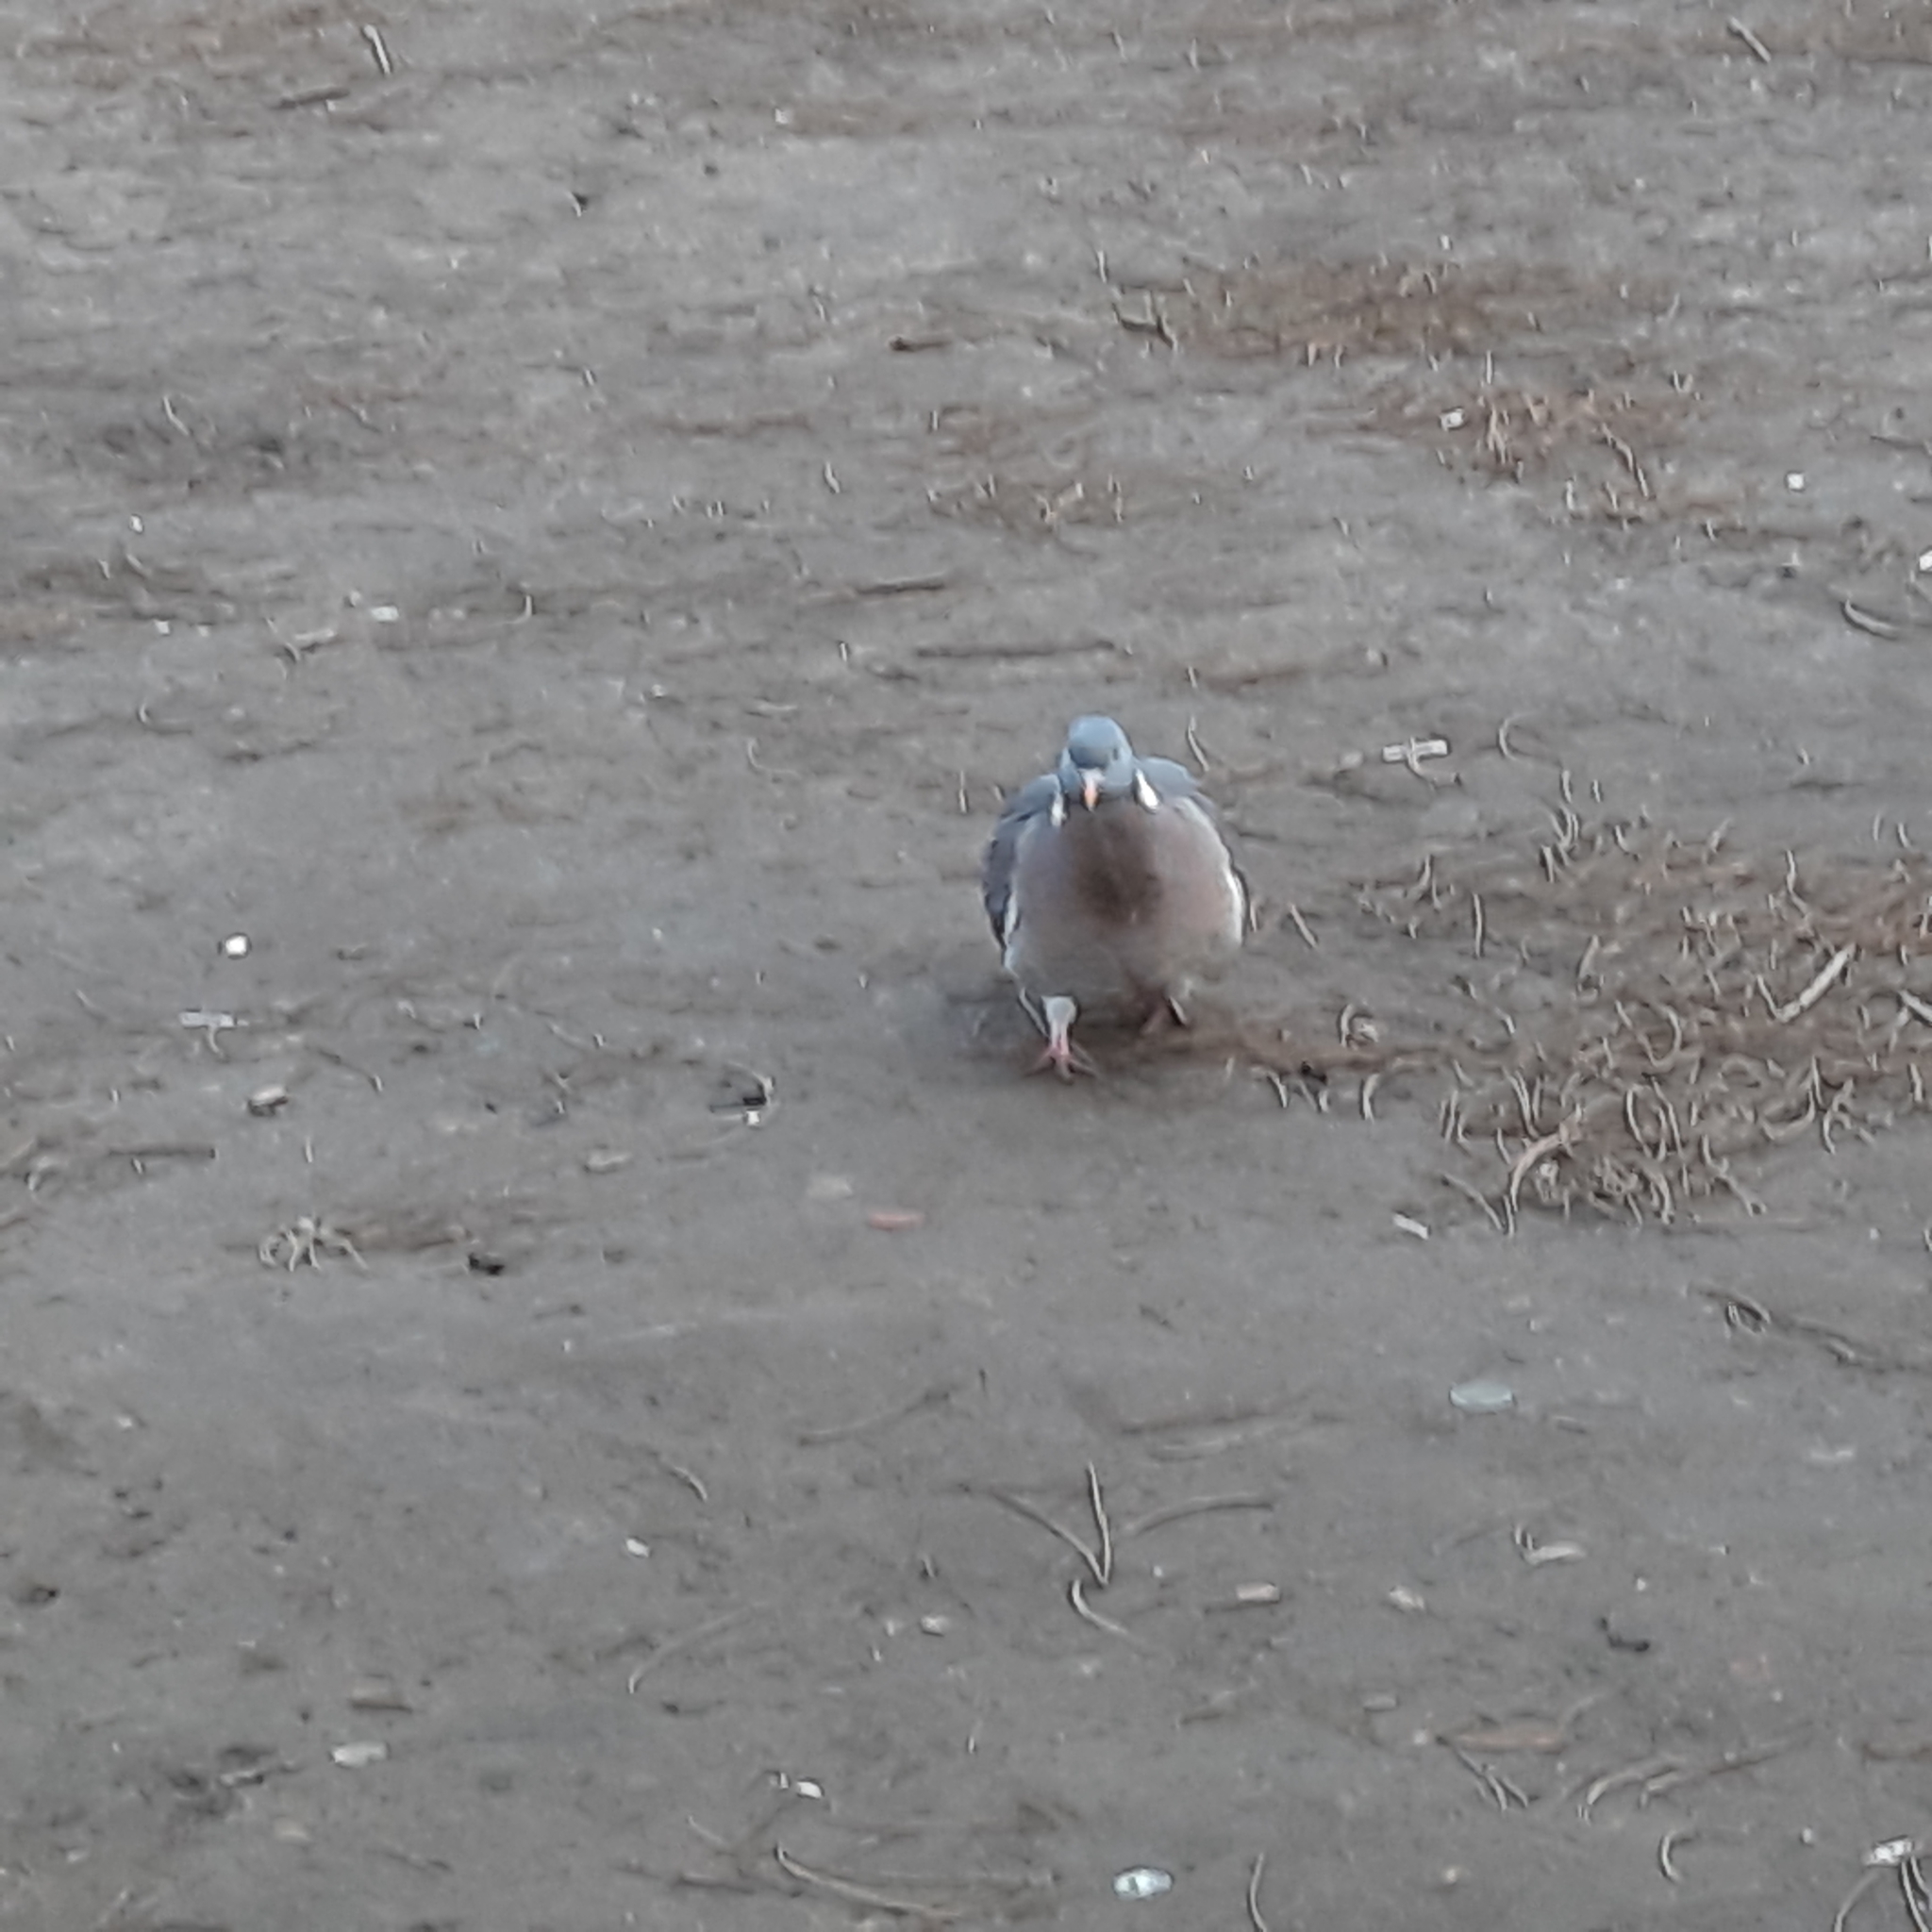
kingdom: Animalia
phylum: Chordata
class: Aves
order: Columbiformes
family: Columbidae
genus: Columba
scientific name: Columba palumbus
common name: Common wood pigeon
